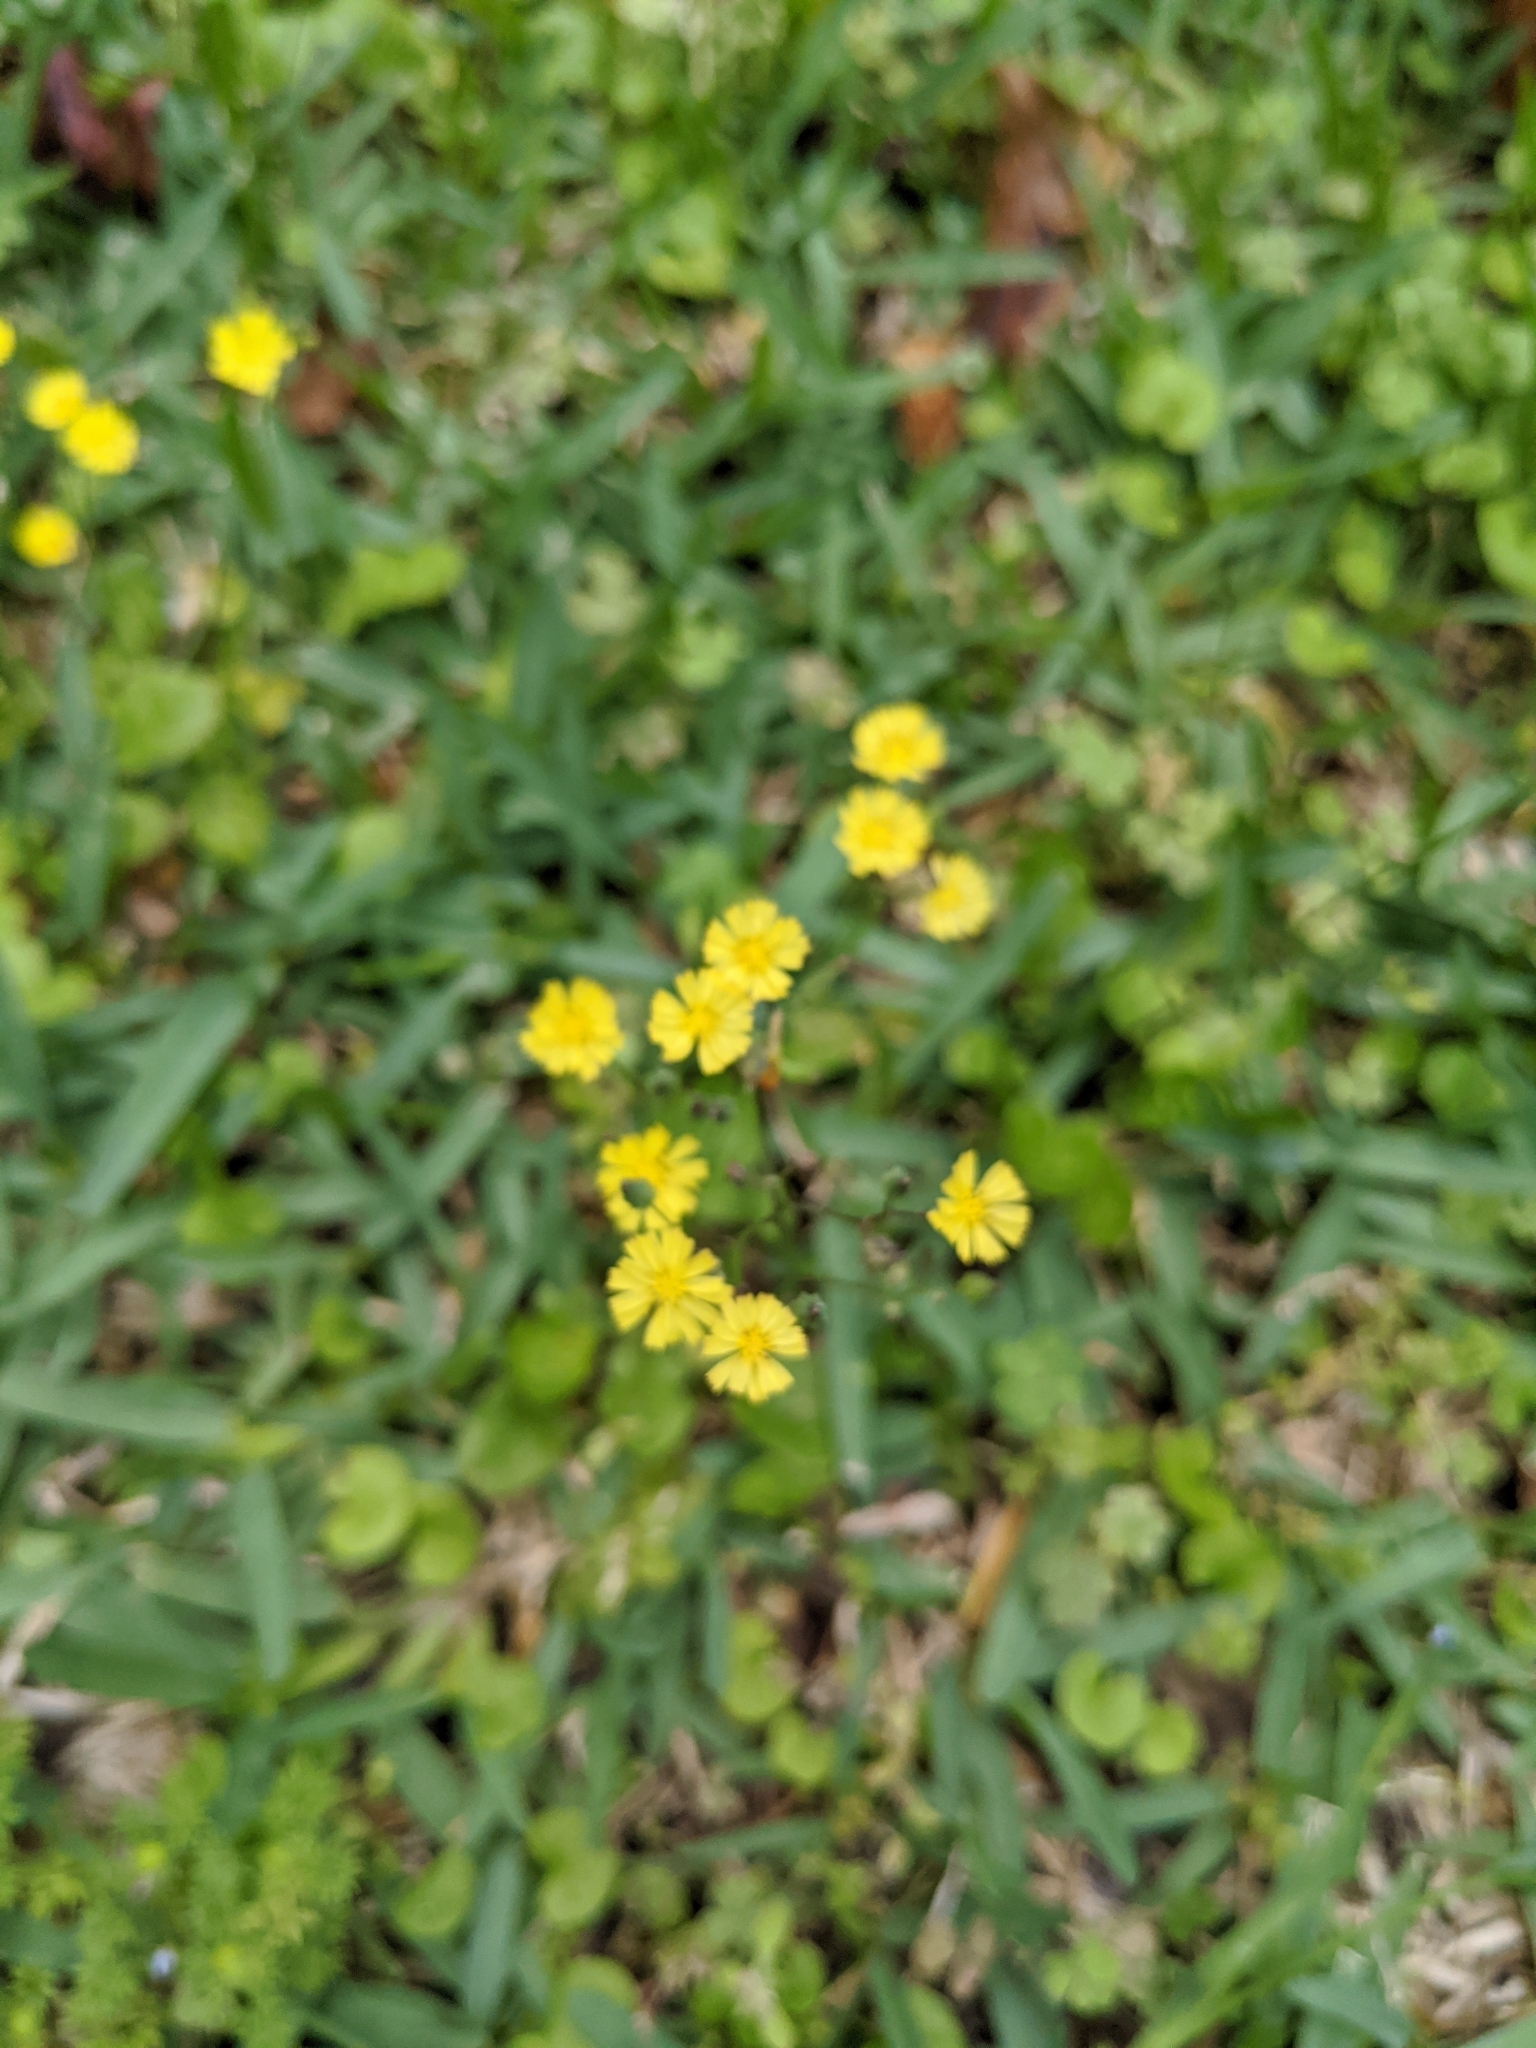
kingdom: Plantae
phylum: Tracheophyta
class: Magnoliopsida
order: Asterales
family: Asteraceae
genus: Youngia
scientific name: Youngia japonica
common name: Oriental false hawksbeard
